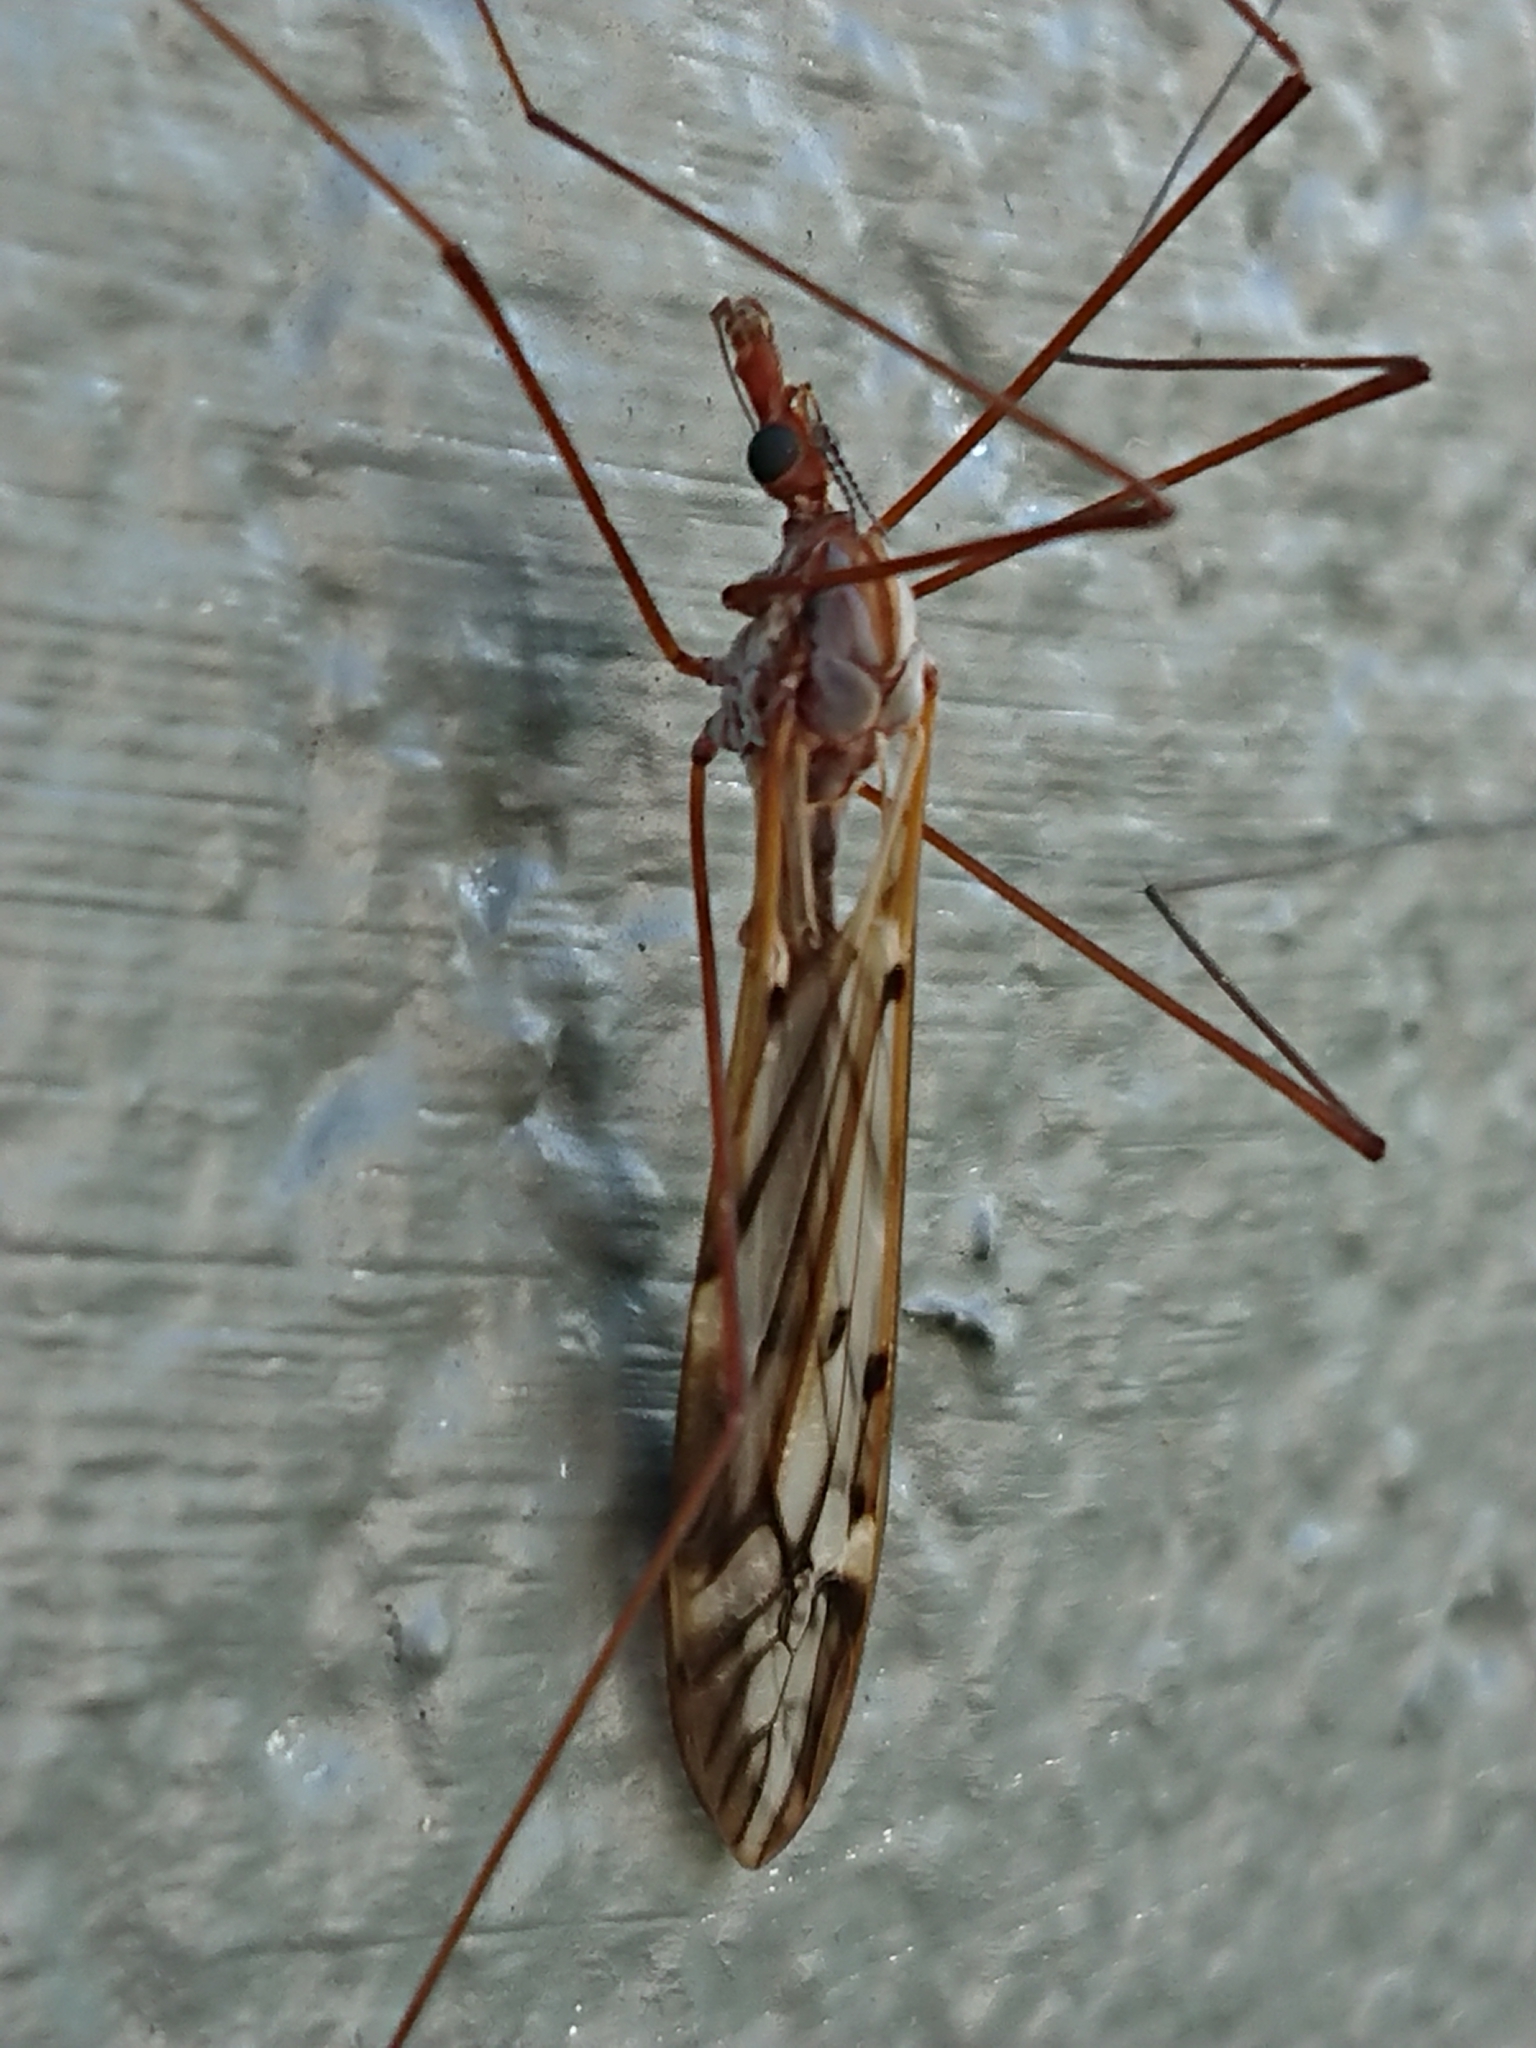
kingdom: Animalia
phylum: Arthropoda
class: Insecta
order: Diptera
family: Tipulidae
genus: Zelandotipula
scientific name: Zelandotipula novarae
